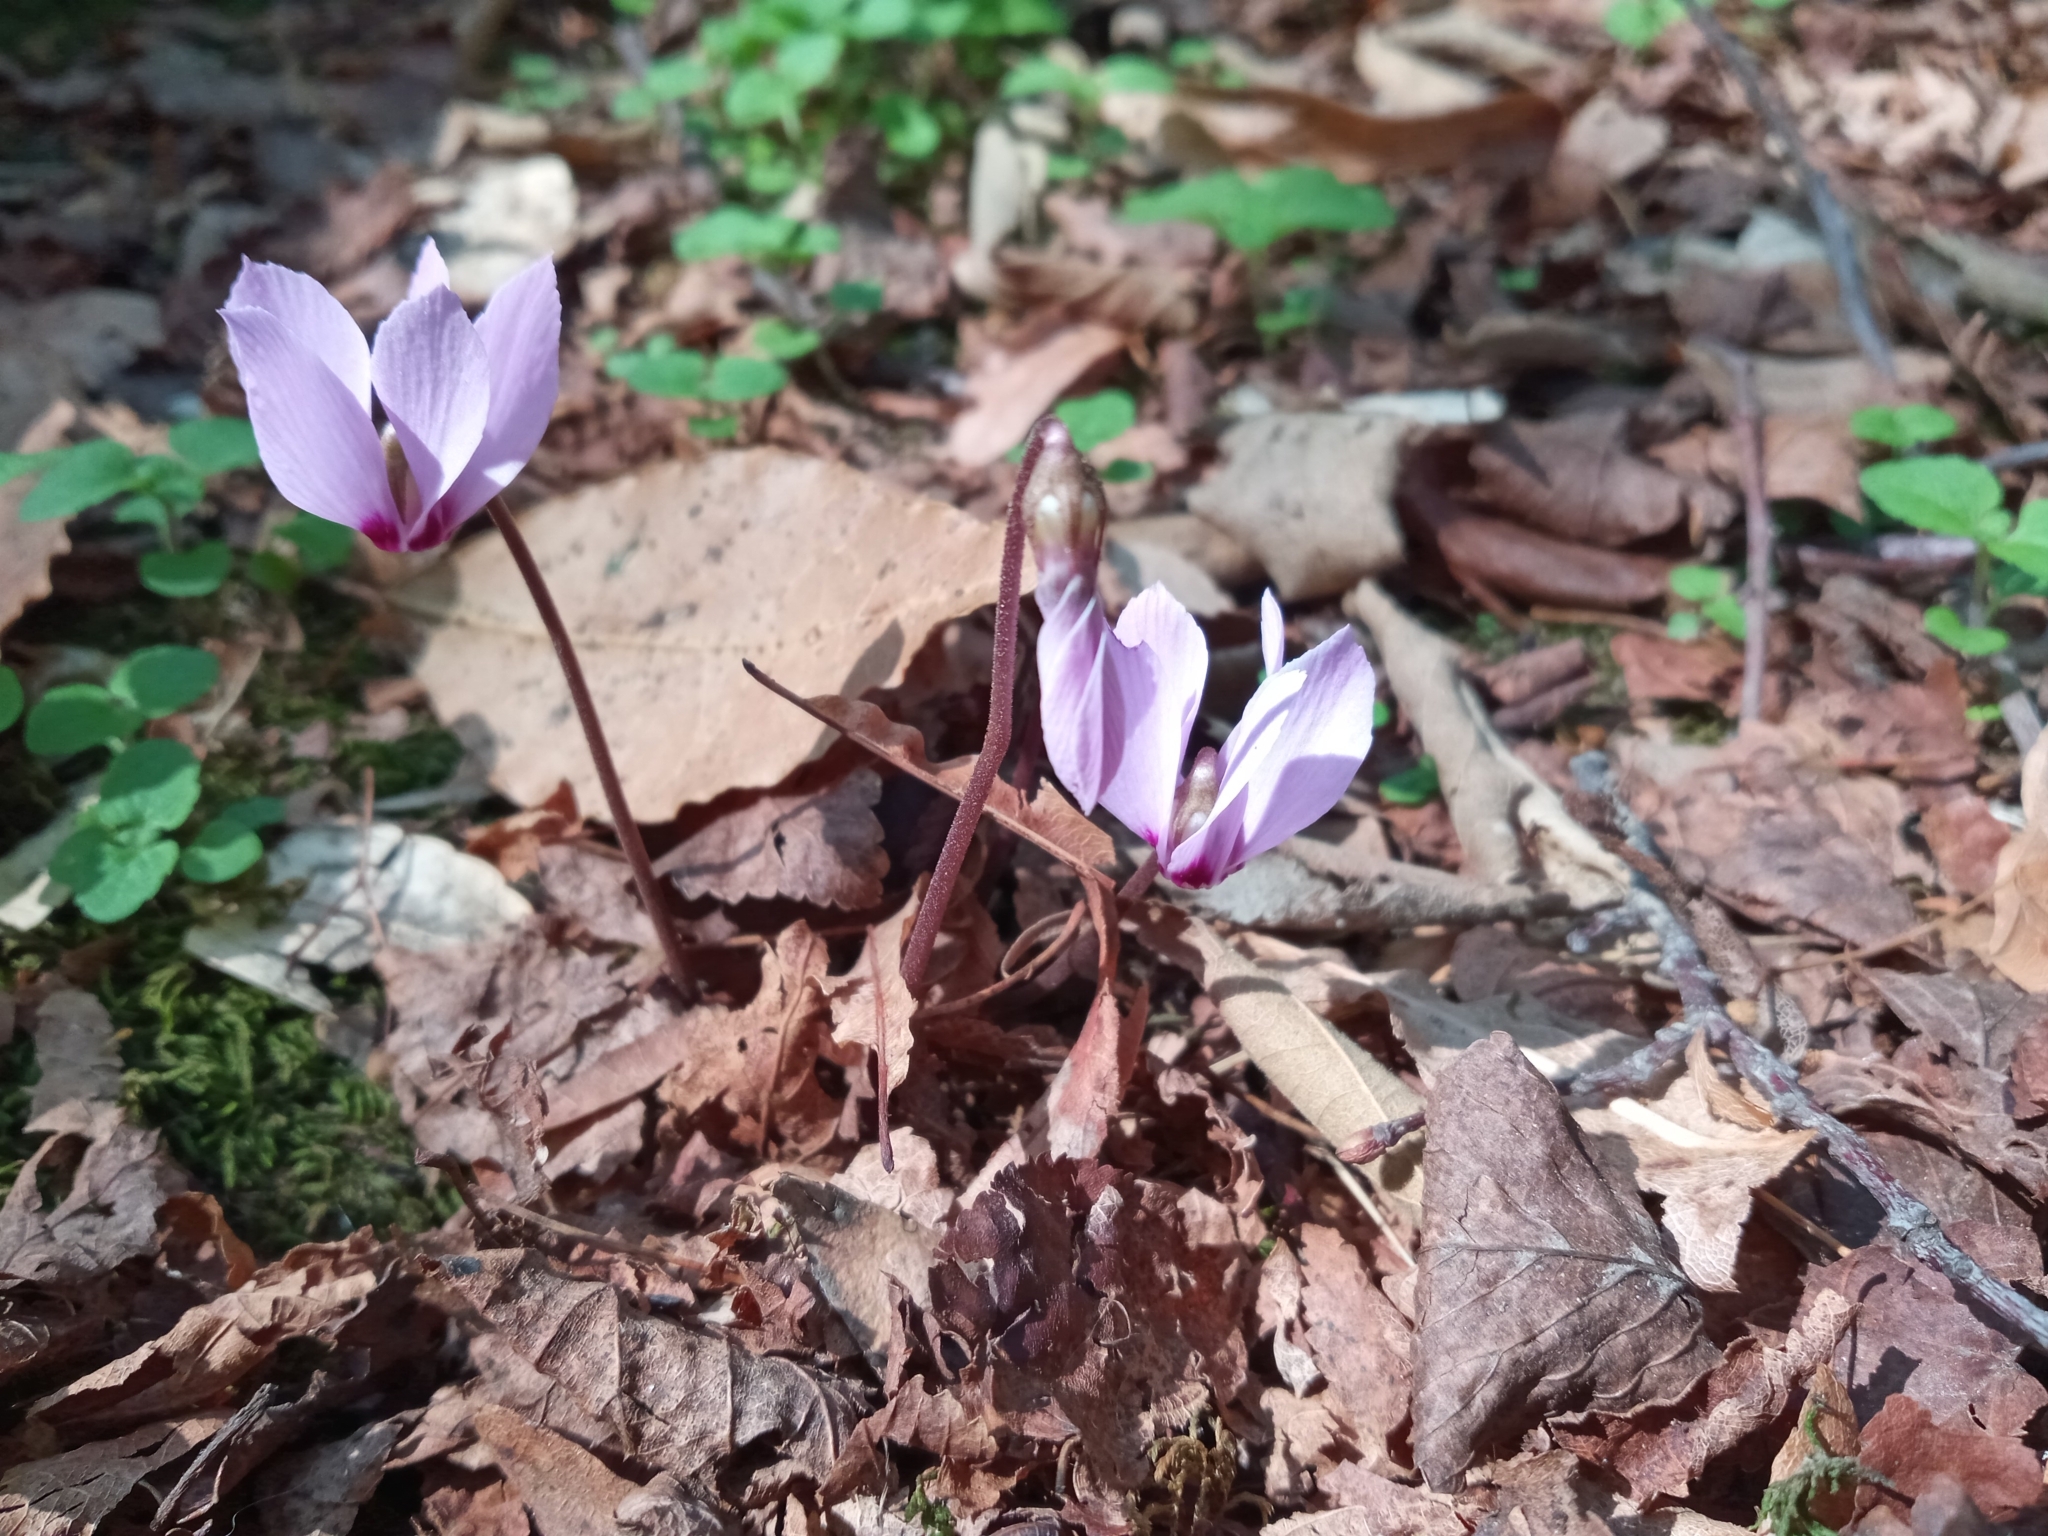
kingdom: Plantae
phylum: Tracheophyta
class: Magnoliopsida
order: Ericales
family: Primulaceae
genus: Cyclamen
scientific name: Cyclamen purpurascens
